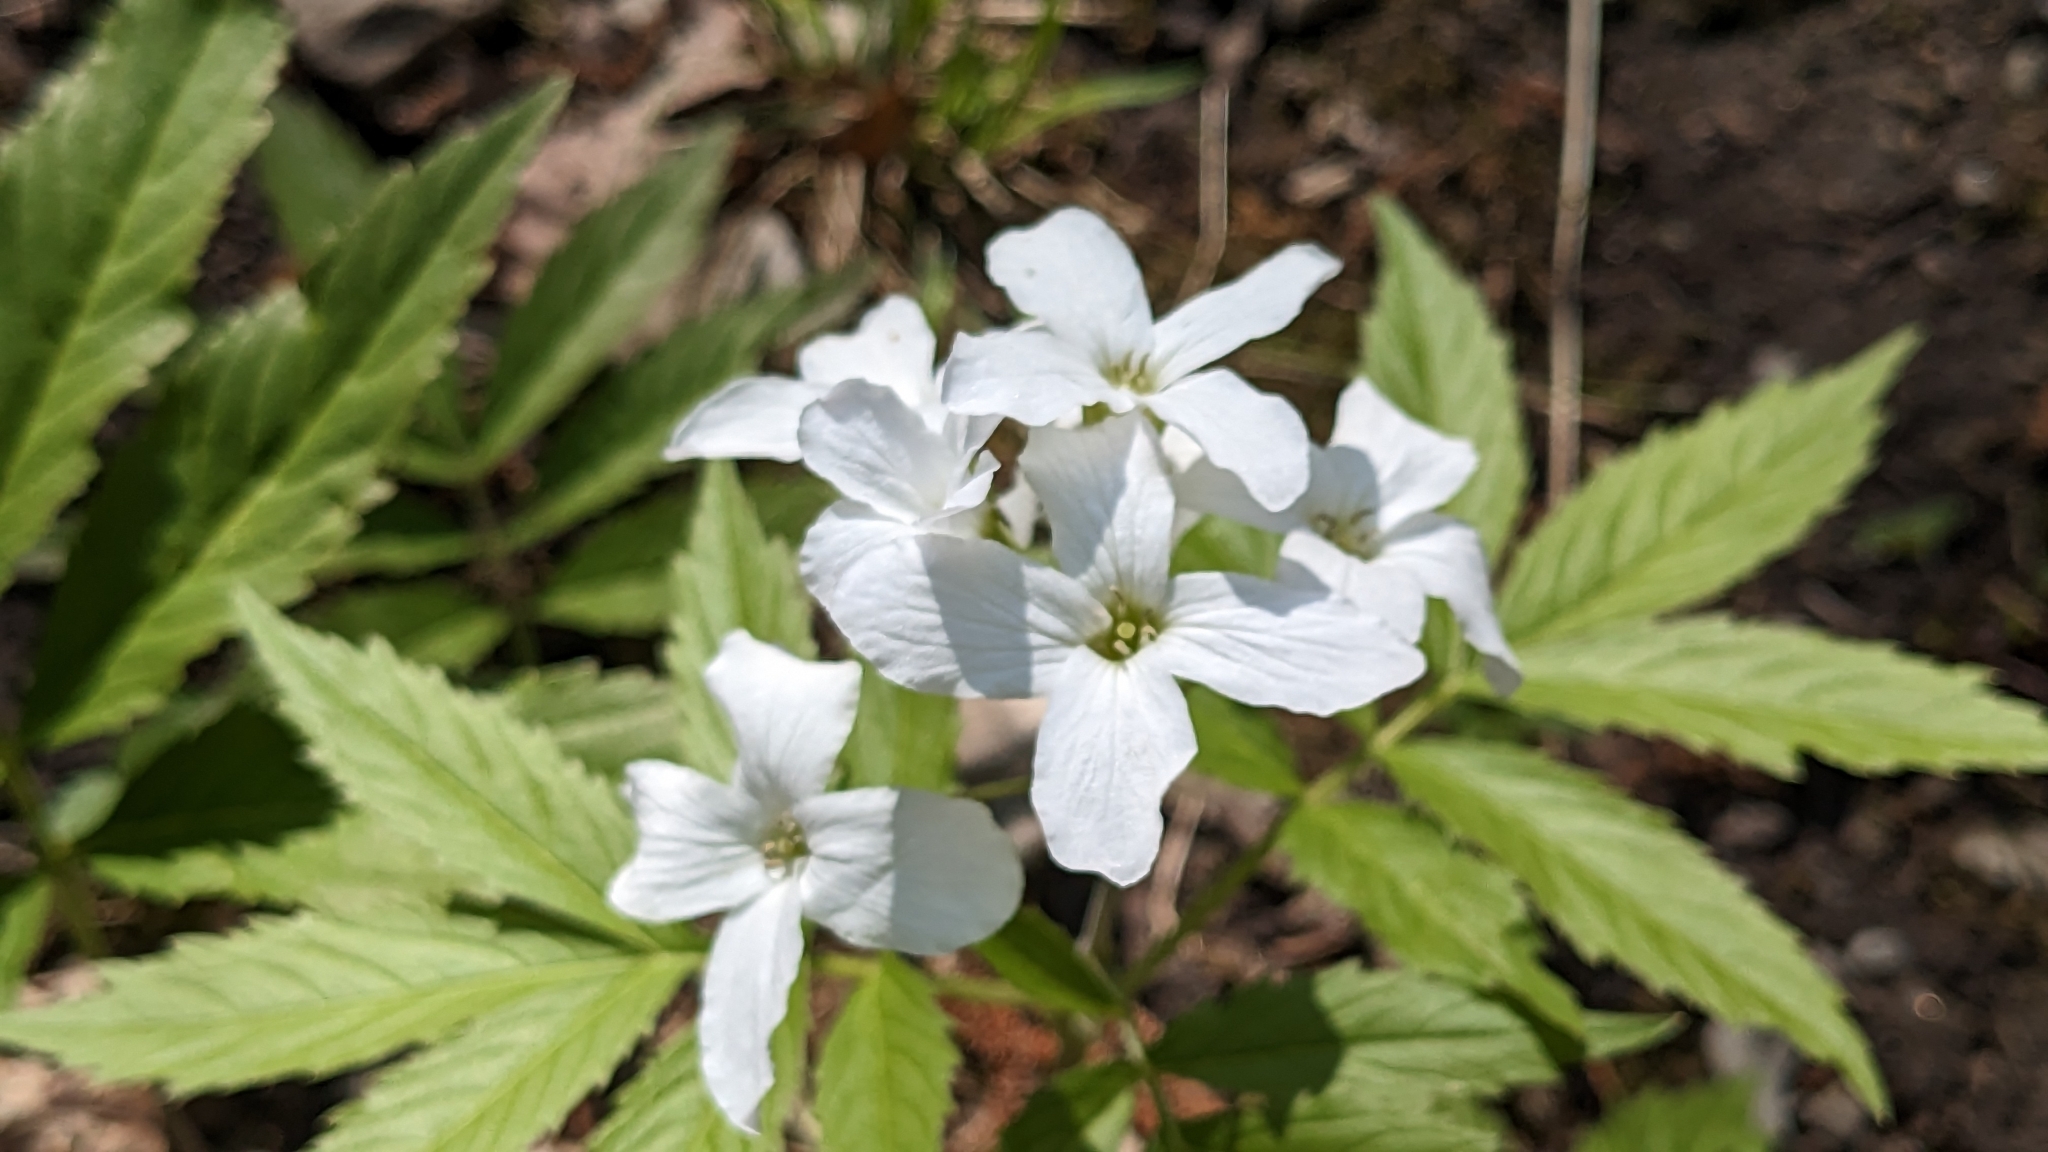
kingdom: Plantae
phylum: Tracheophyta
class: Magnoliopsida
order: Brassicales
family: Brassicaceae
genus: Cardamine
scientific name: Cardamine heptaphylla
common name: Pinnate coralroot
